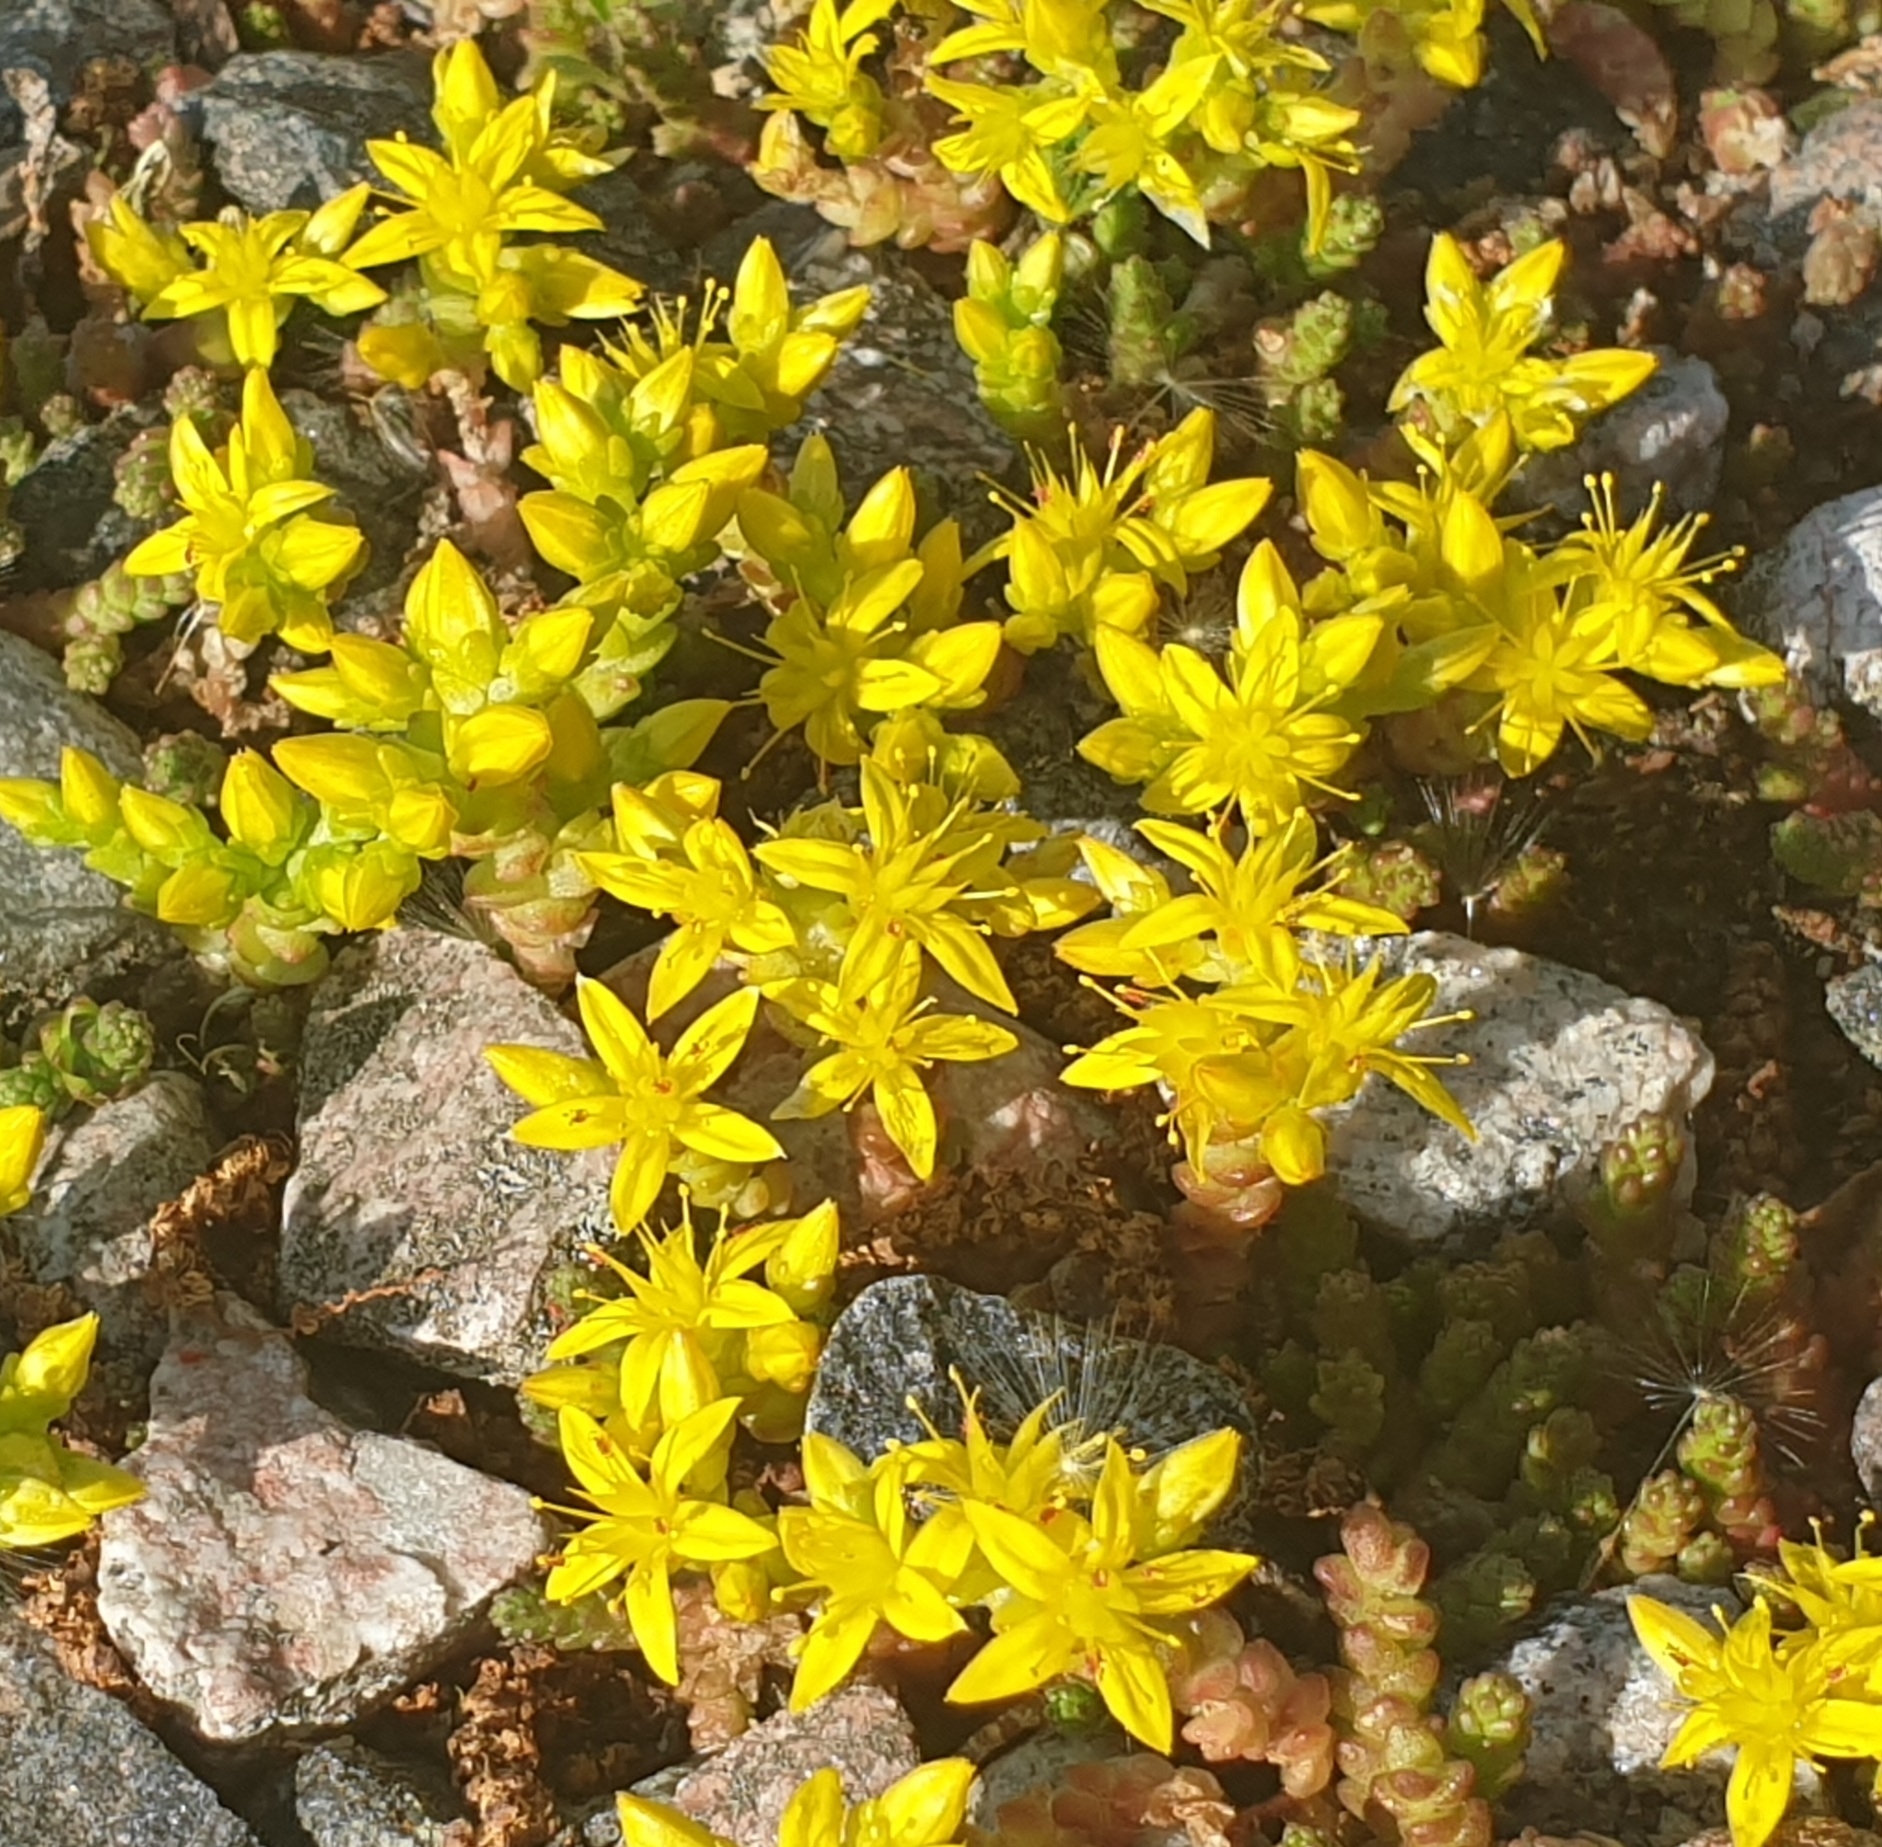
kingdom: Plantae
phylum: Tracheophyta
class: Magnoliopsida
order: Saxifragales
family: Crassulaceae
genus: Sedum
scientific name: Sedum acre
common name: Biting stonecrop
